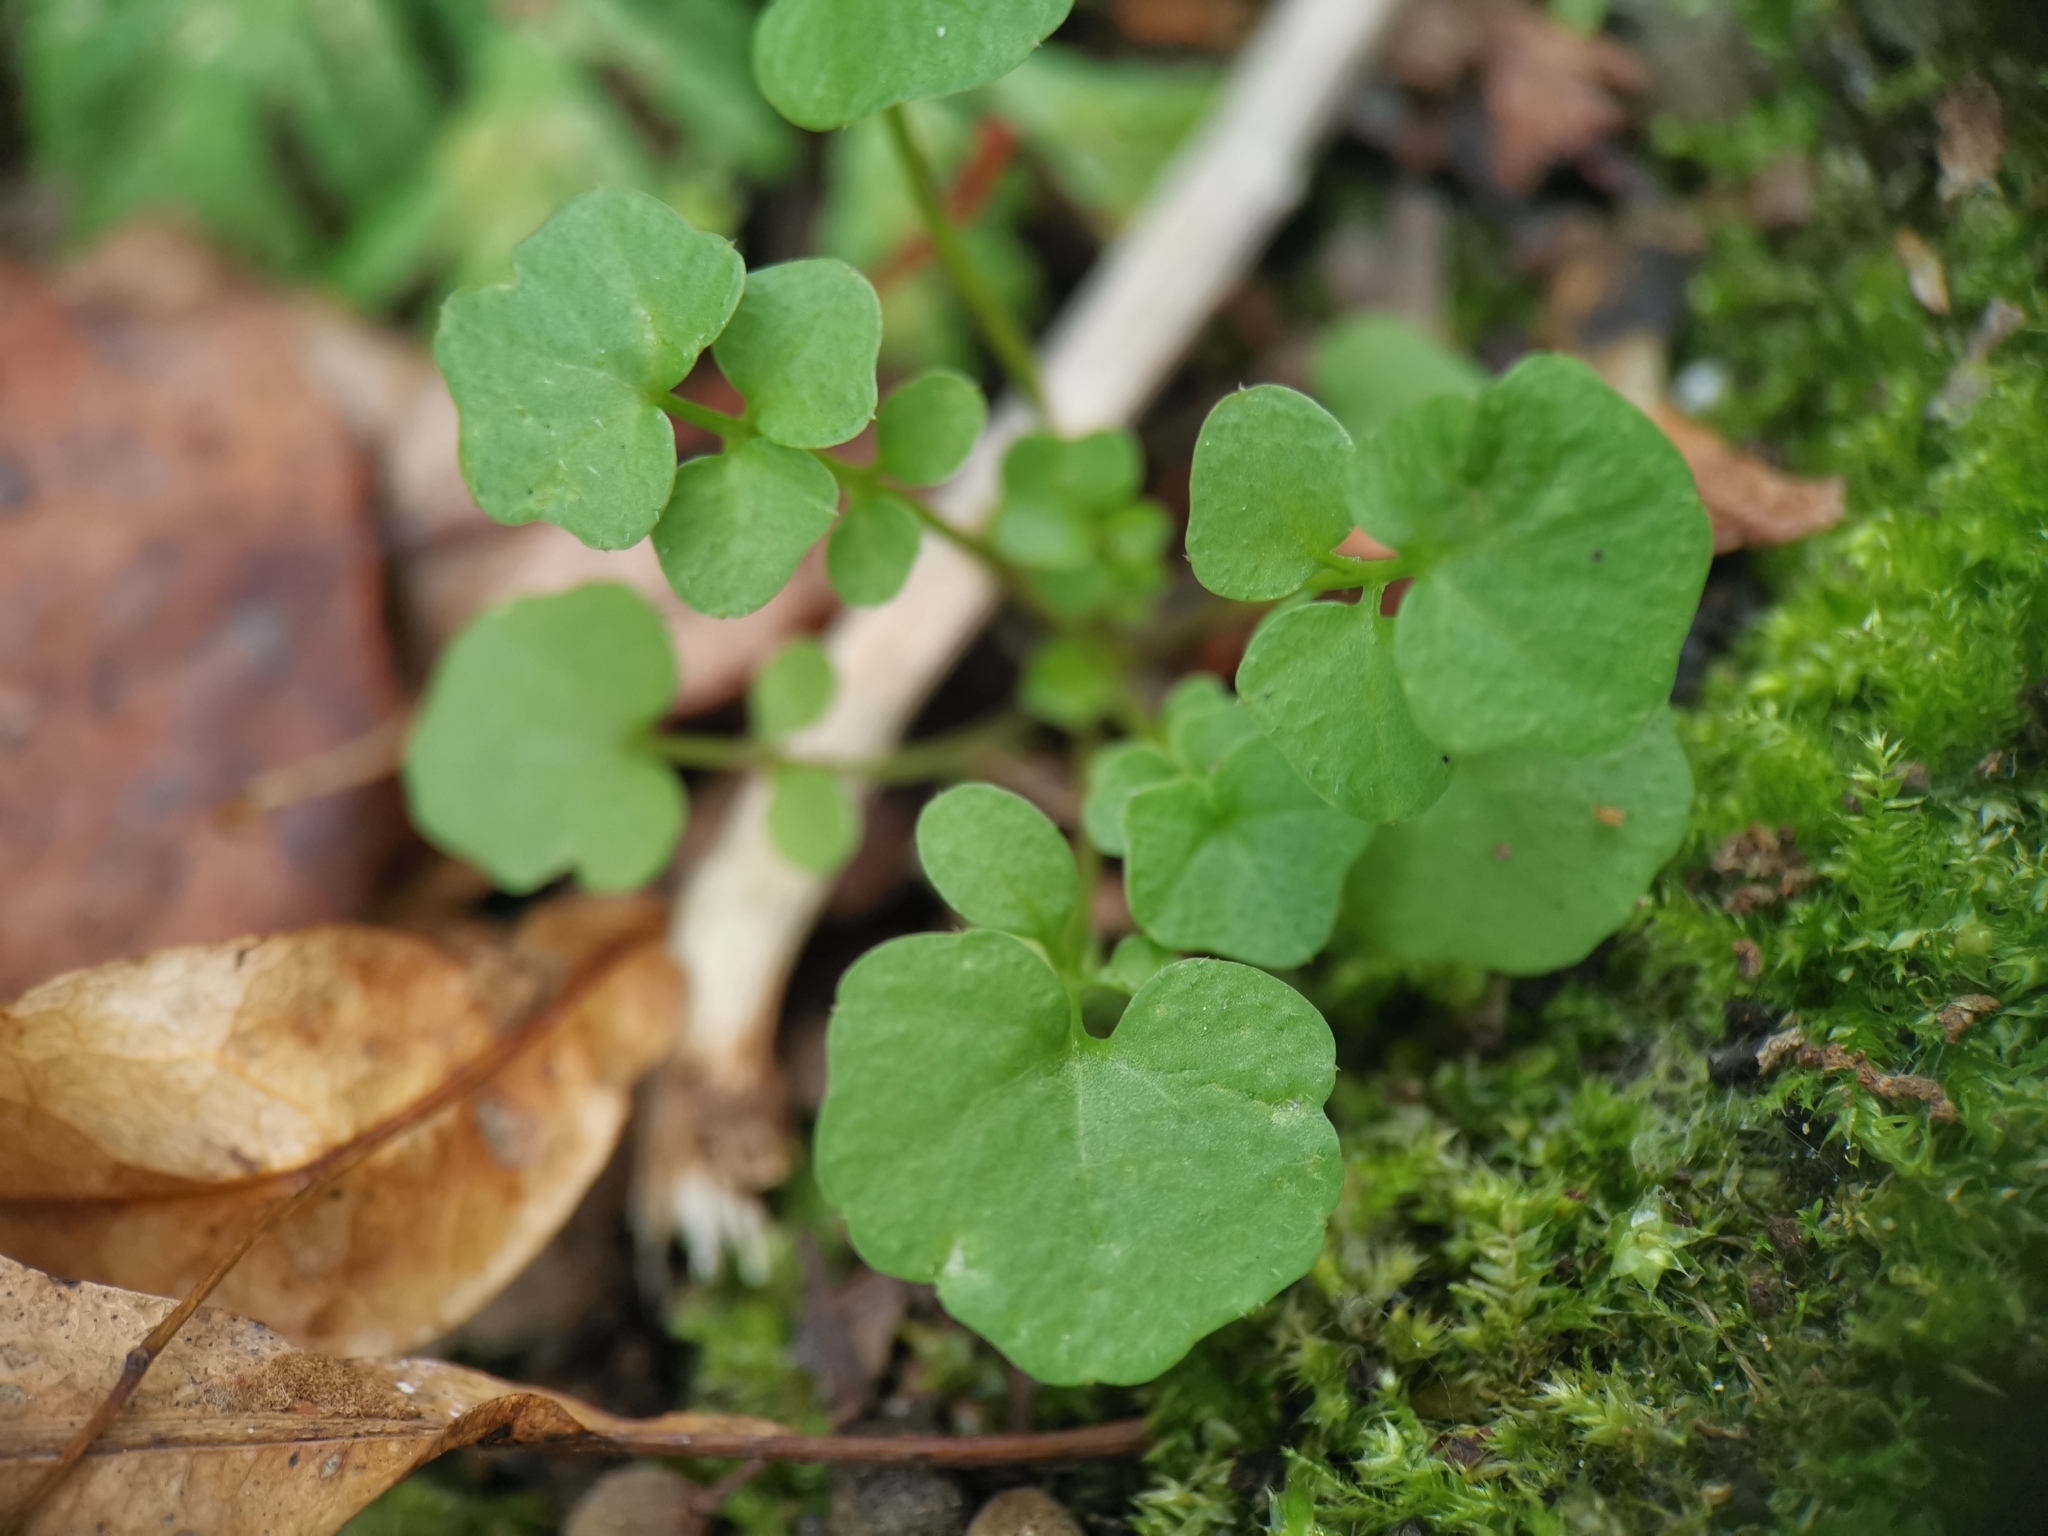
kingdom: Plantae
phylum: Tracheophyta
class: Magnoliopsida
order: Brassicales
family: Brassicaceae
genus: Cardamine
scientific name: Cardamine hirsuta
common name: Hairy bittercress
